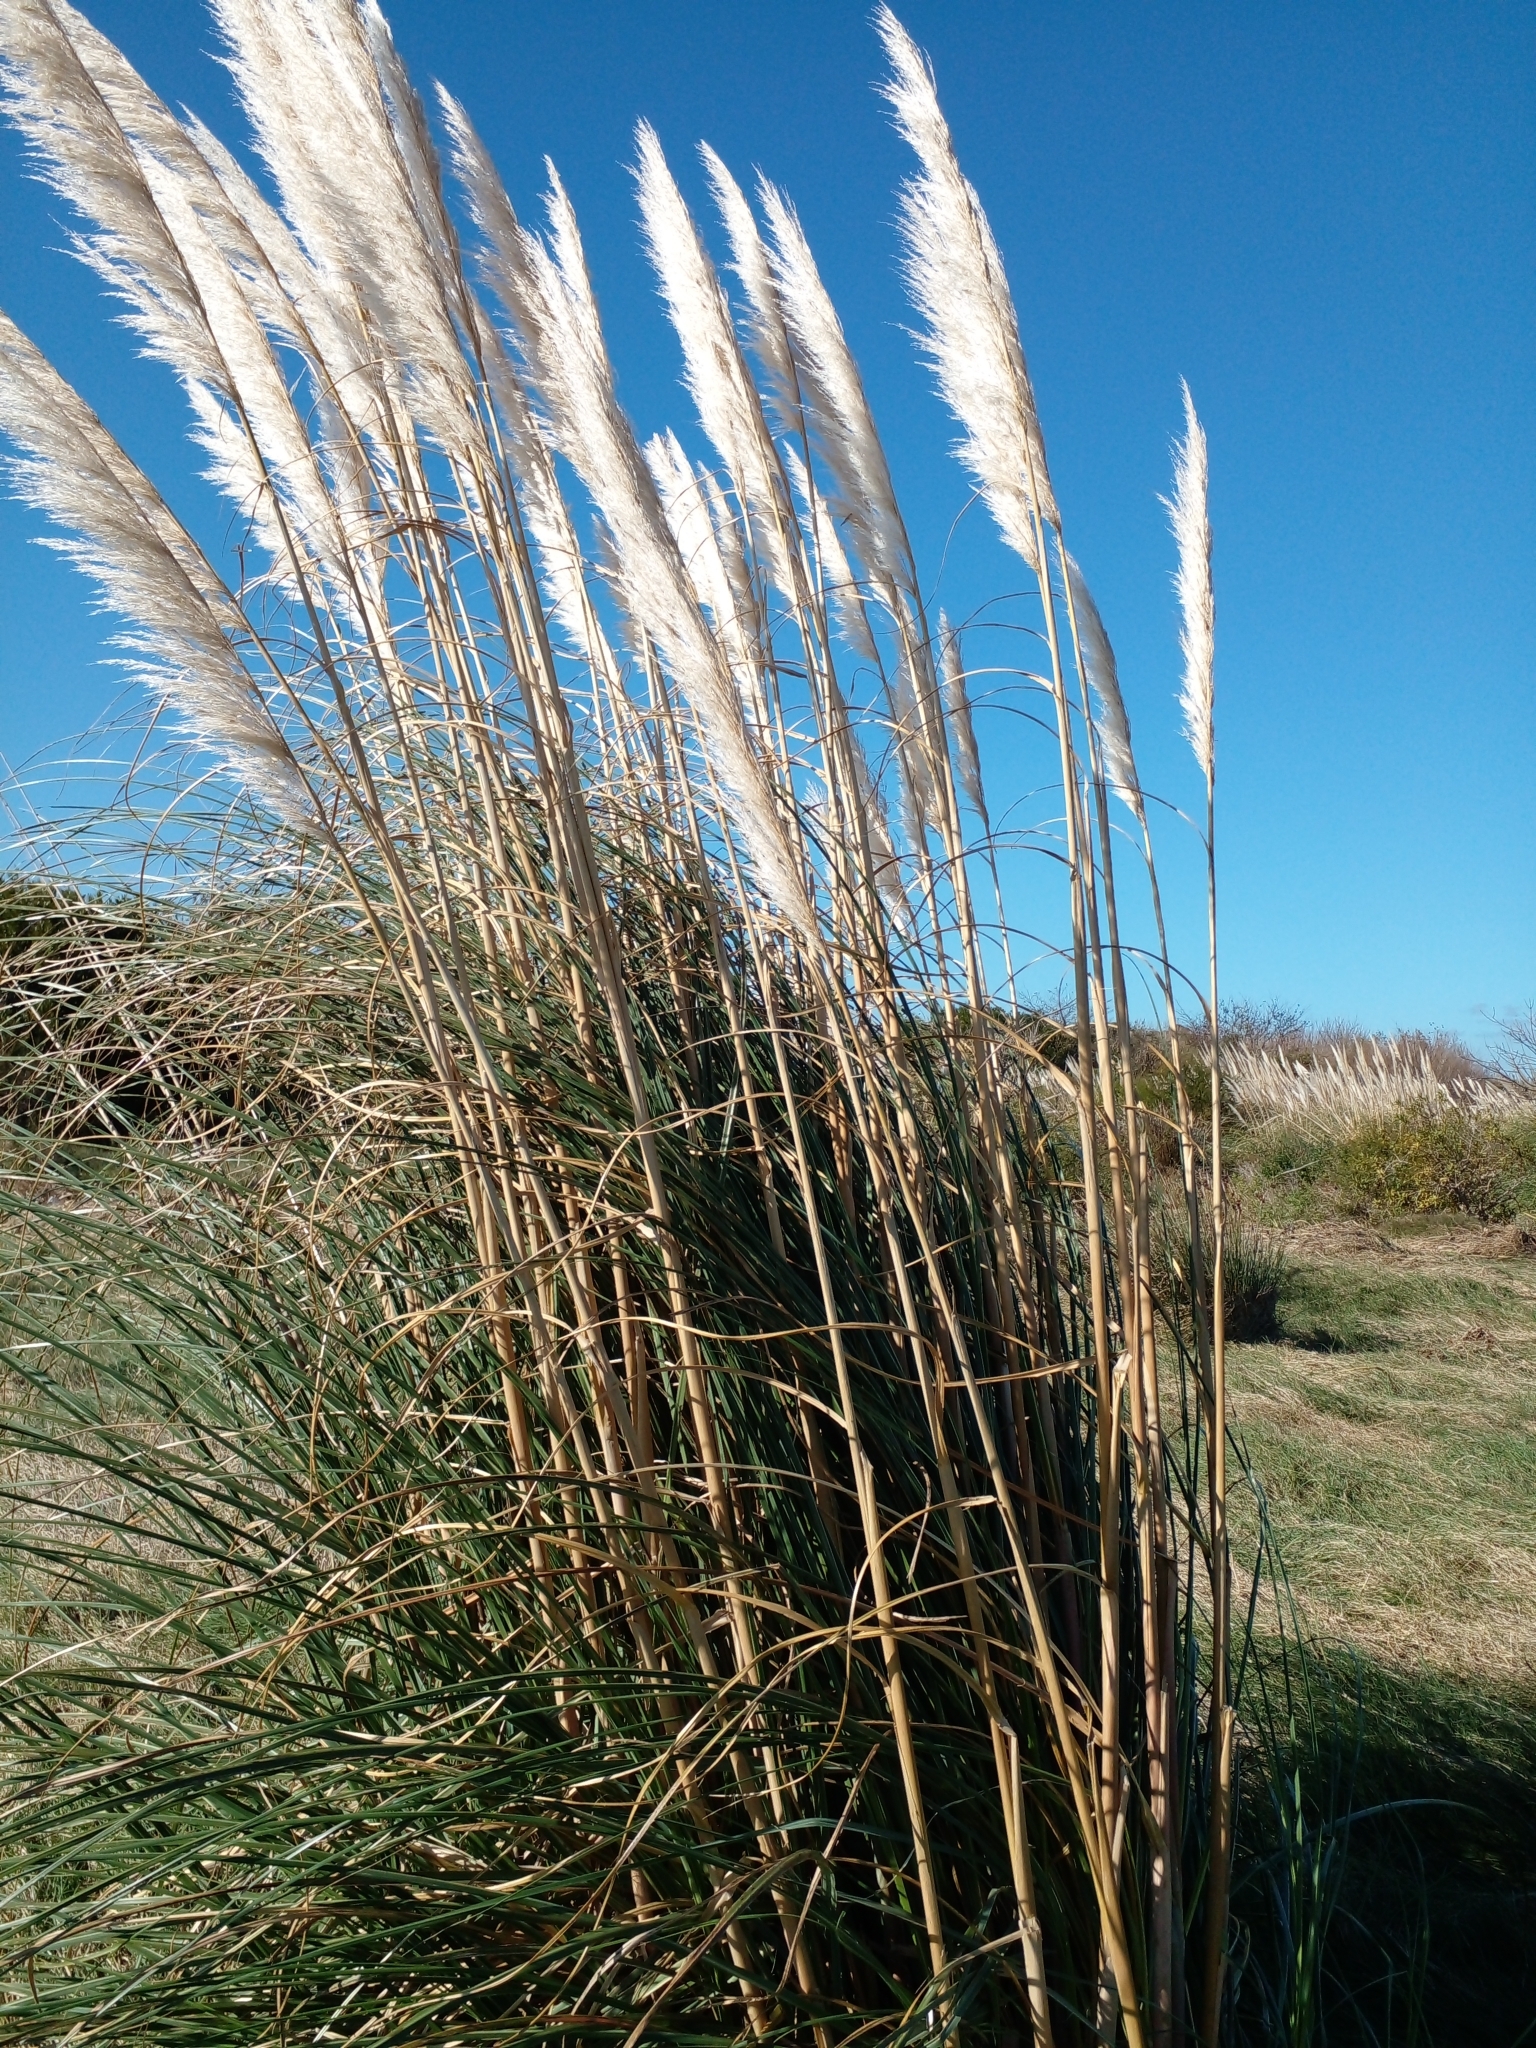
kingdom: Plantae
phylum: Tracheophyta
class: Liliopsida
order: Poales
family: Poaceae
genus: Cortaderia
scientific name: Cortaderia selloana
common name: Uruguayan pampas grass
